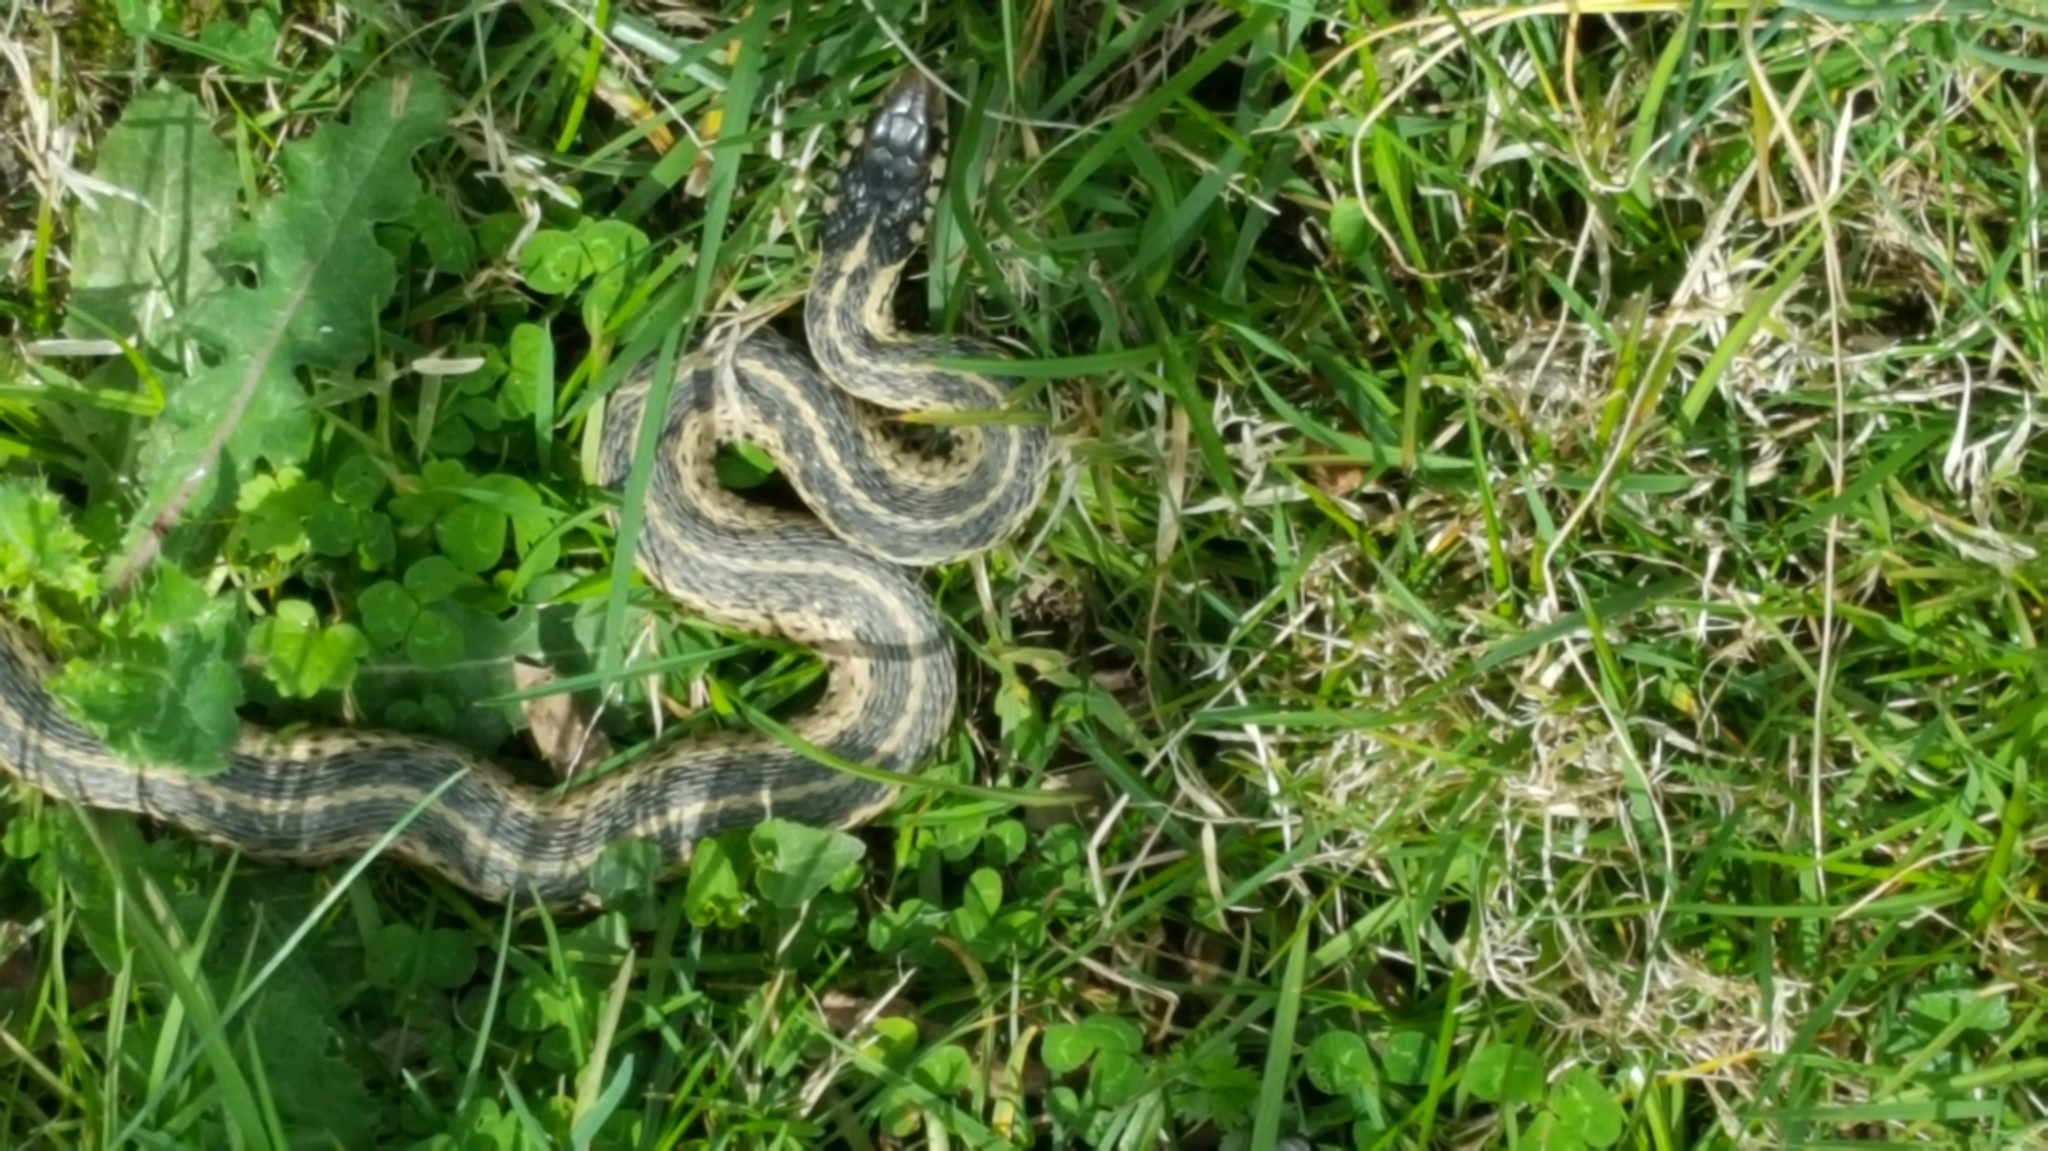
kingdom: Animalia
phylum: Chordata
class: Squamata
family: Colubridae
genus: Thamnophis
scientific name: Thamnophis sirtalis
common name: Common garter snake
